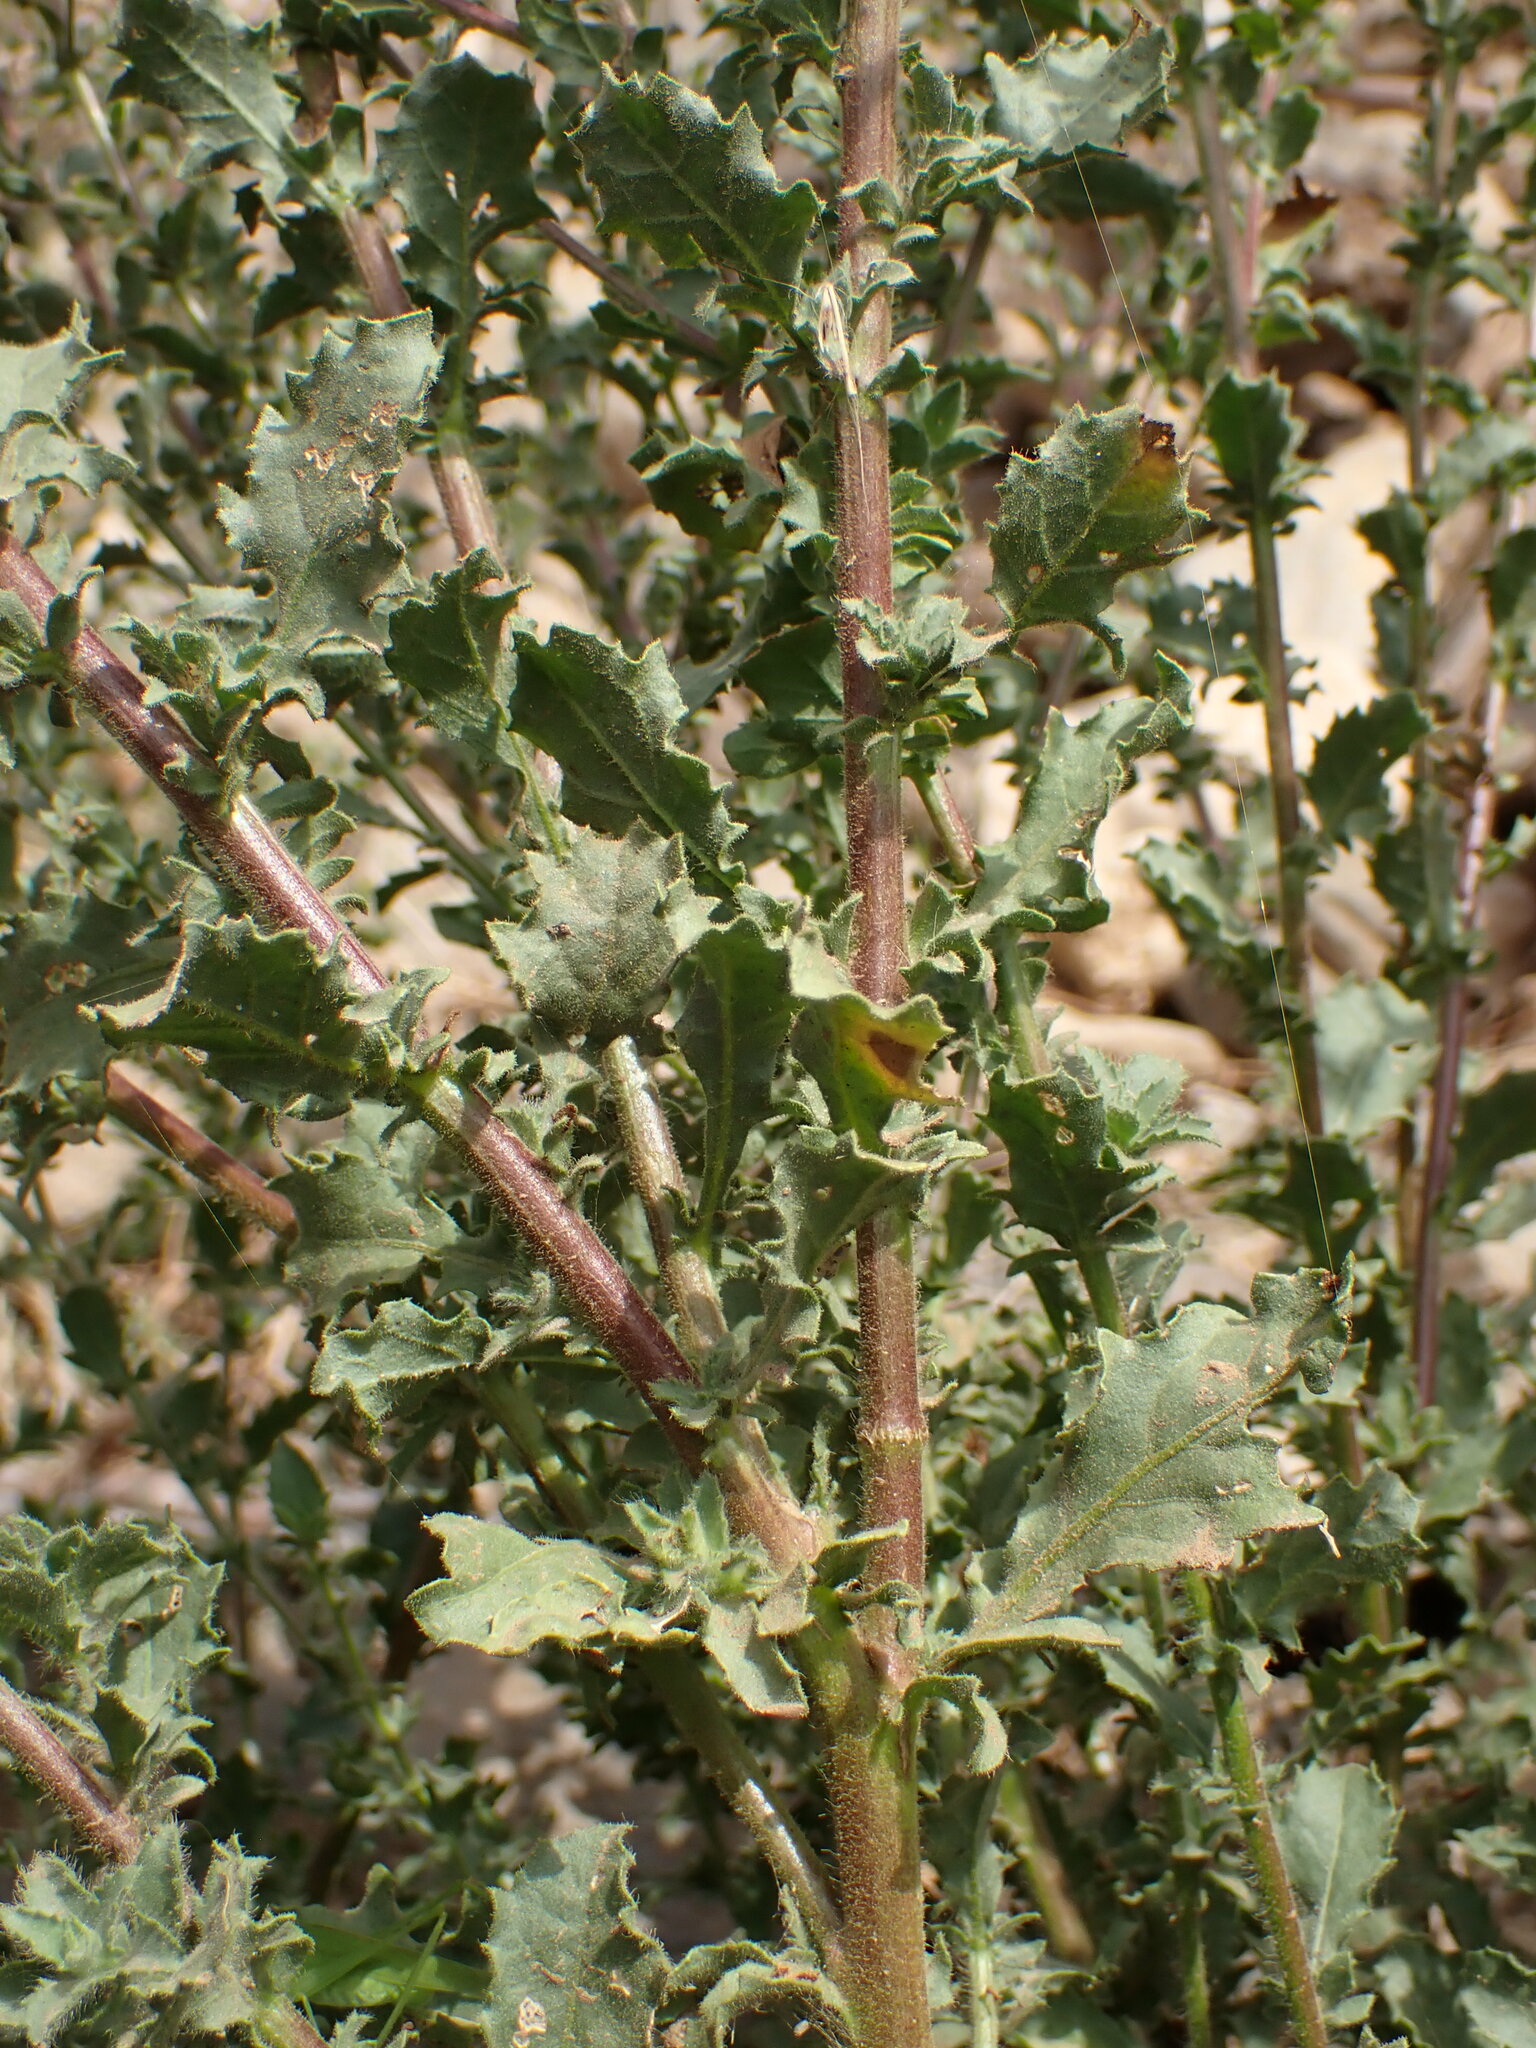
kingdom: Plantae
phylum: Tracheophyta
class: Magnoliopsida
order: Asterales
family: Asteraceae
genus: Pseudoconyza
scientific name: Pseudoconyza viscosa
